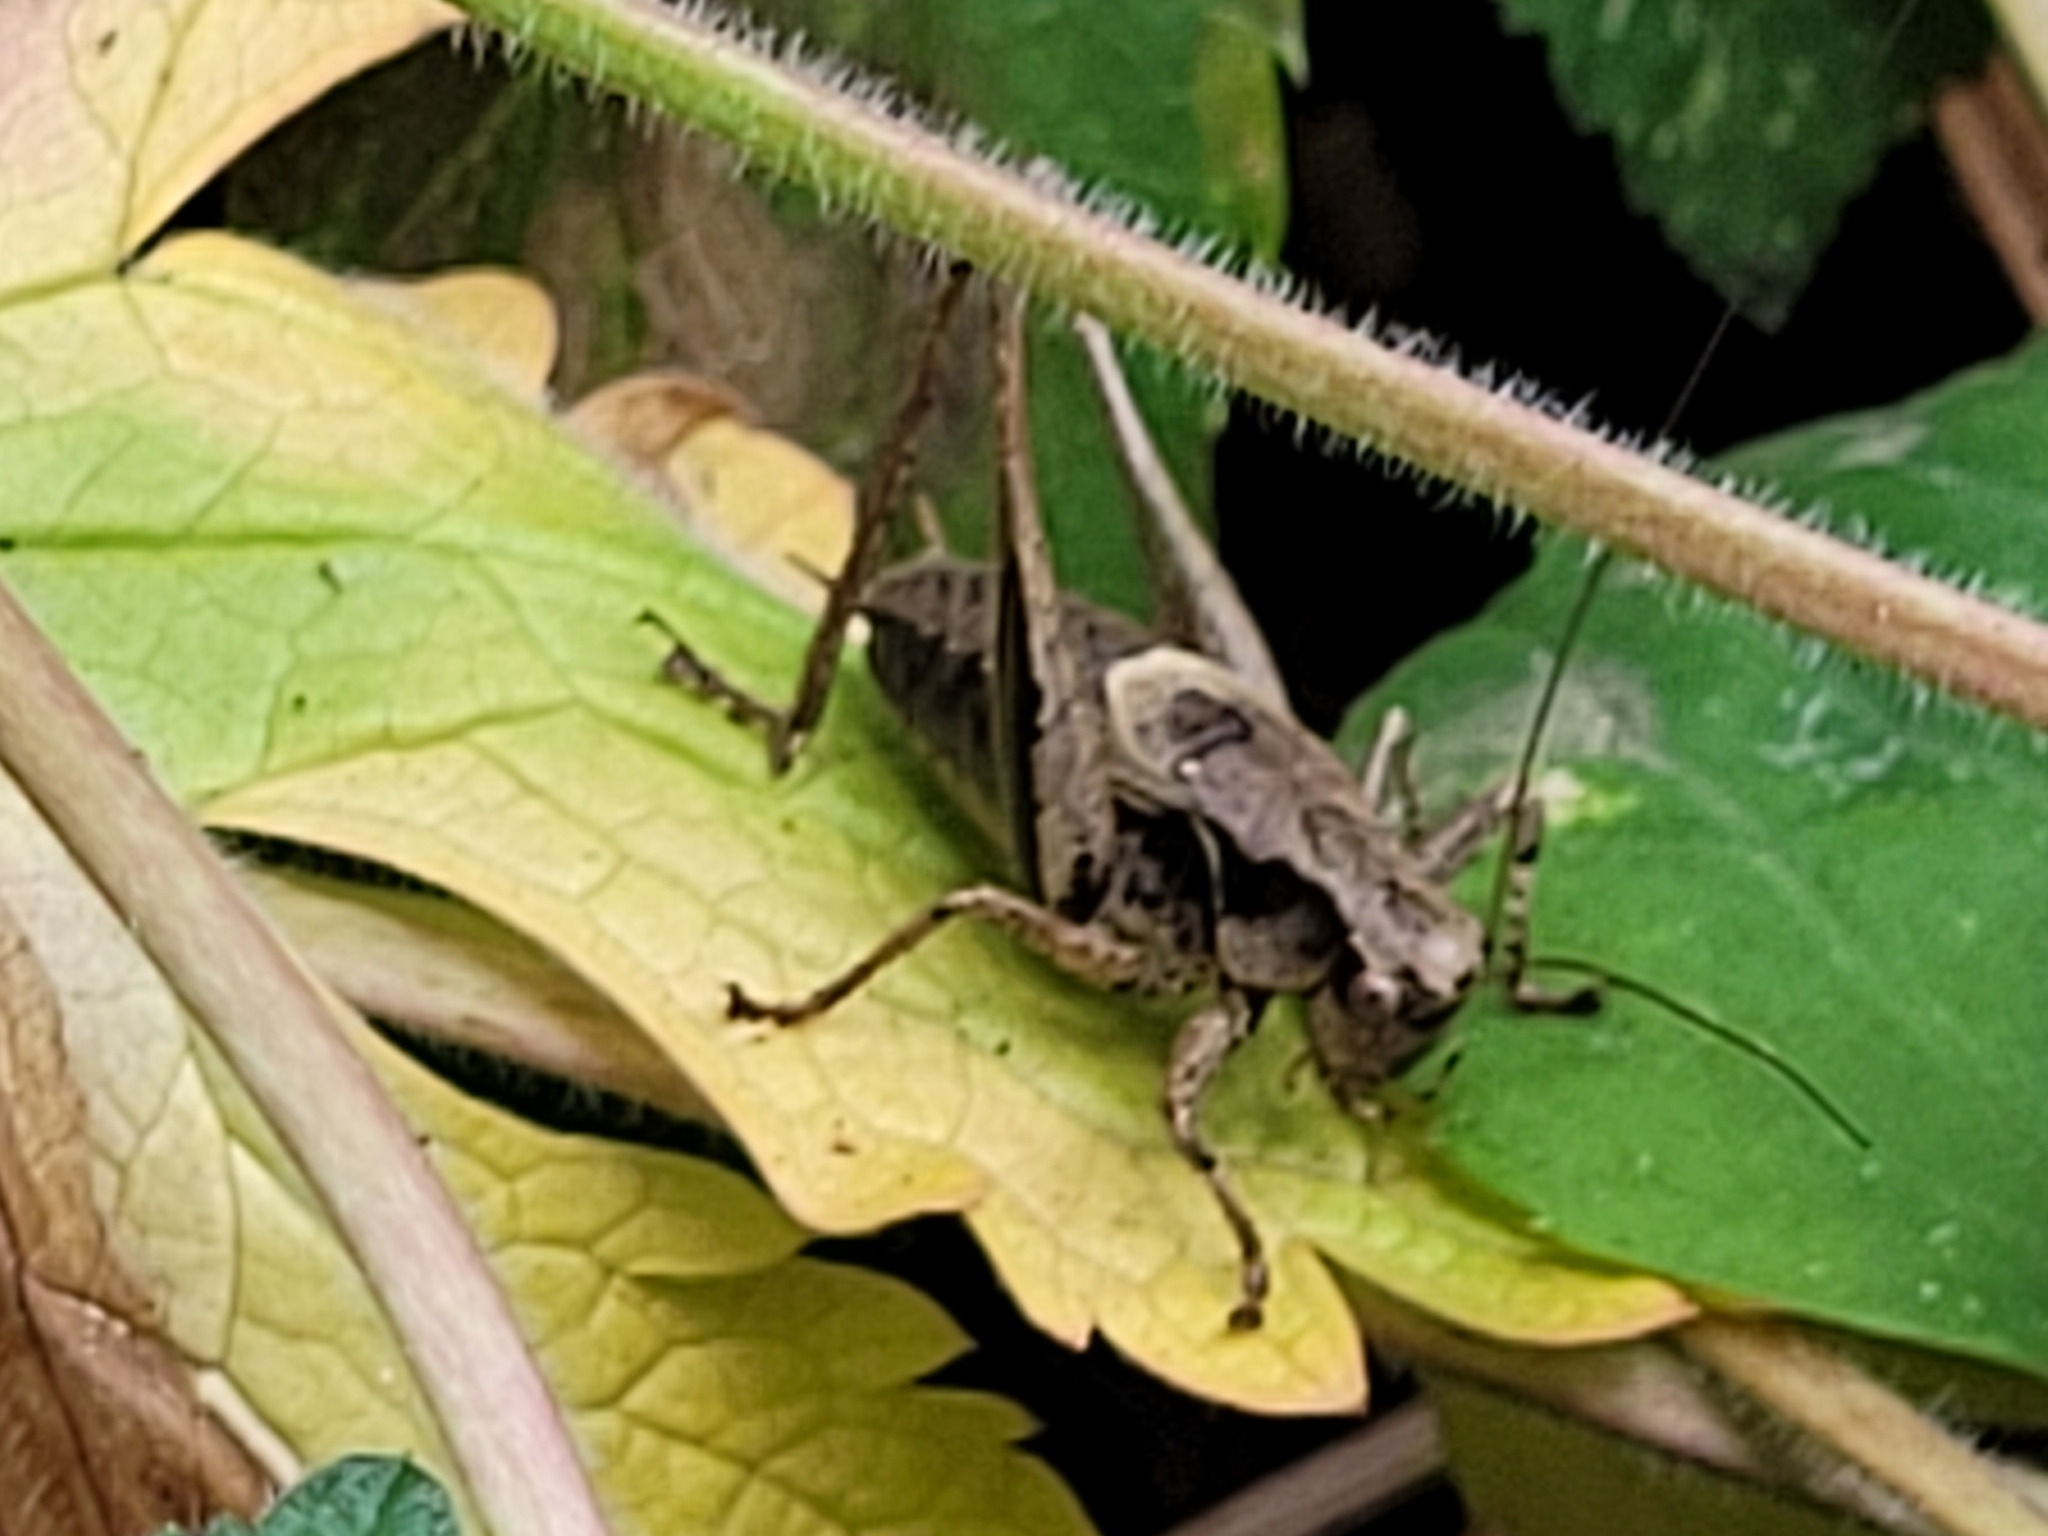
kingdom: Animalia
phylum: Arthropoda
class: Insecta
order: Orthoptera
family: Tettigoniidae
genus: Pholidoptera
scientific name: Pholidoptera griseoaptera
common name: Dark bush-cricket
